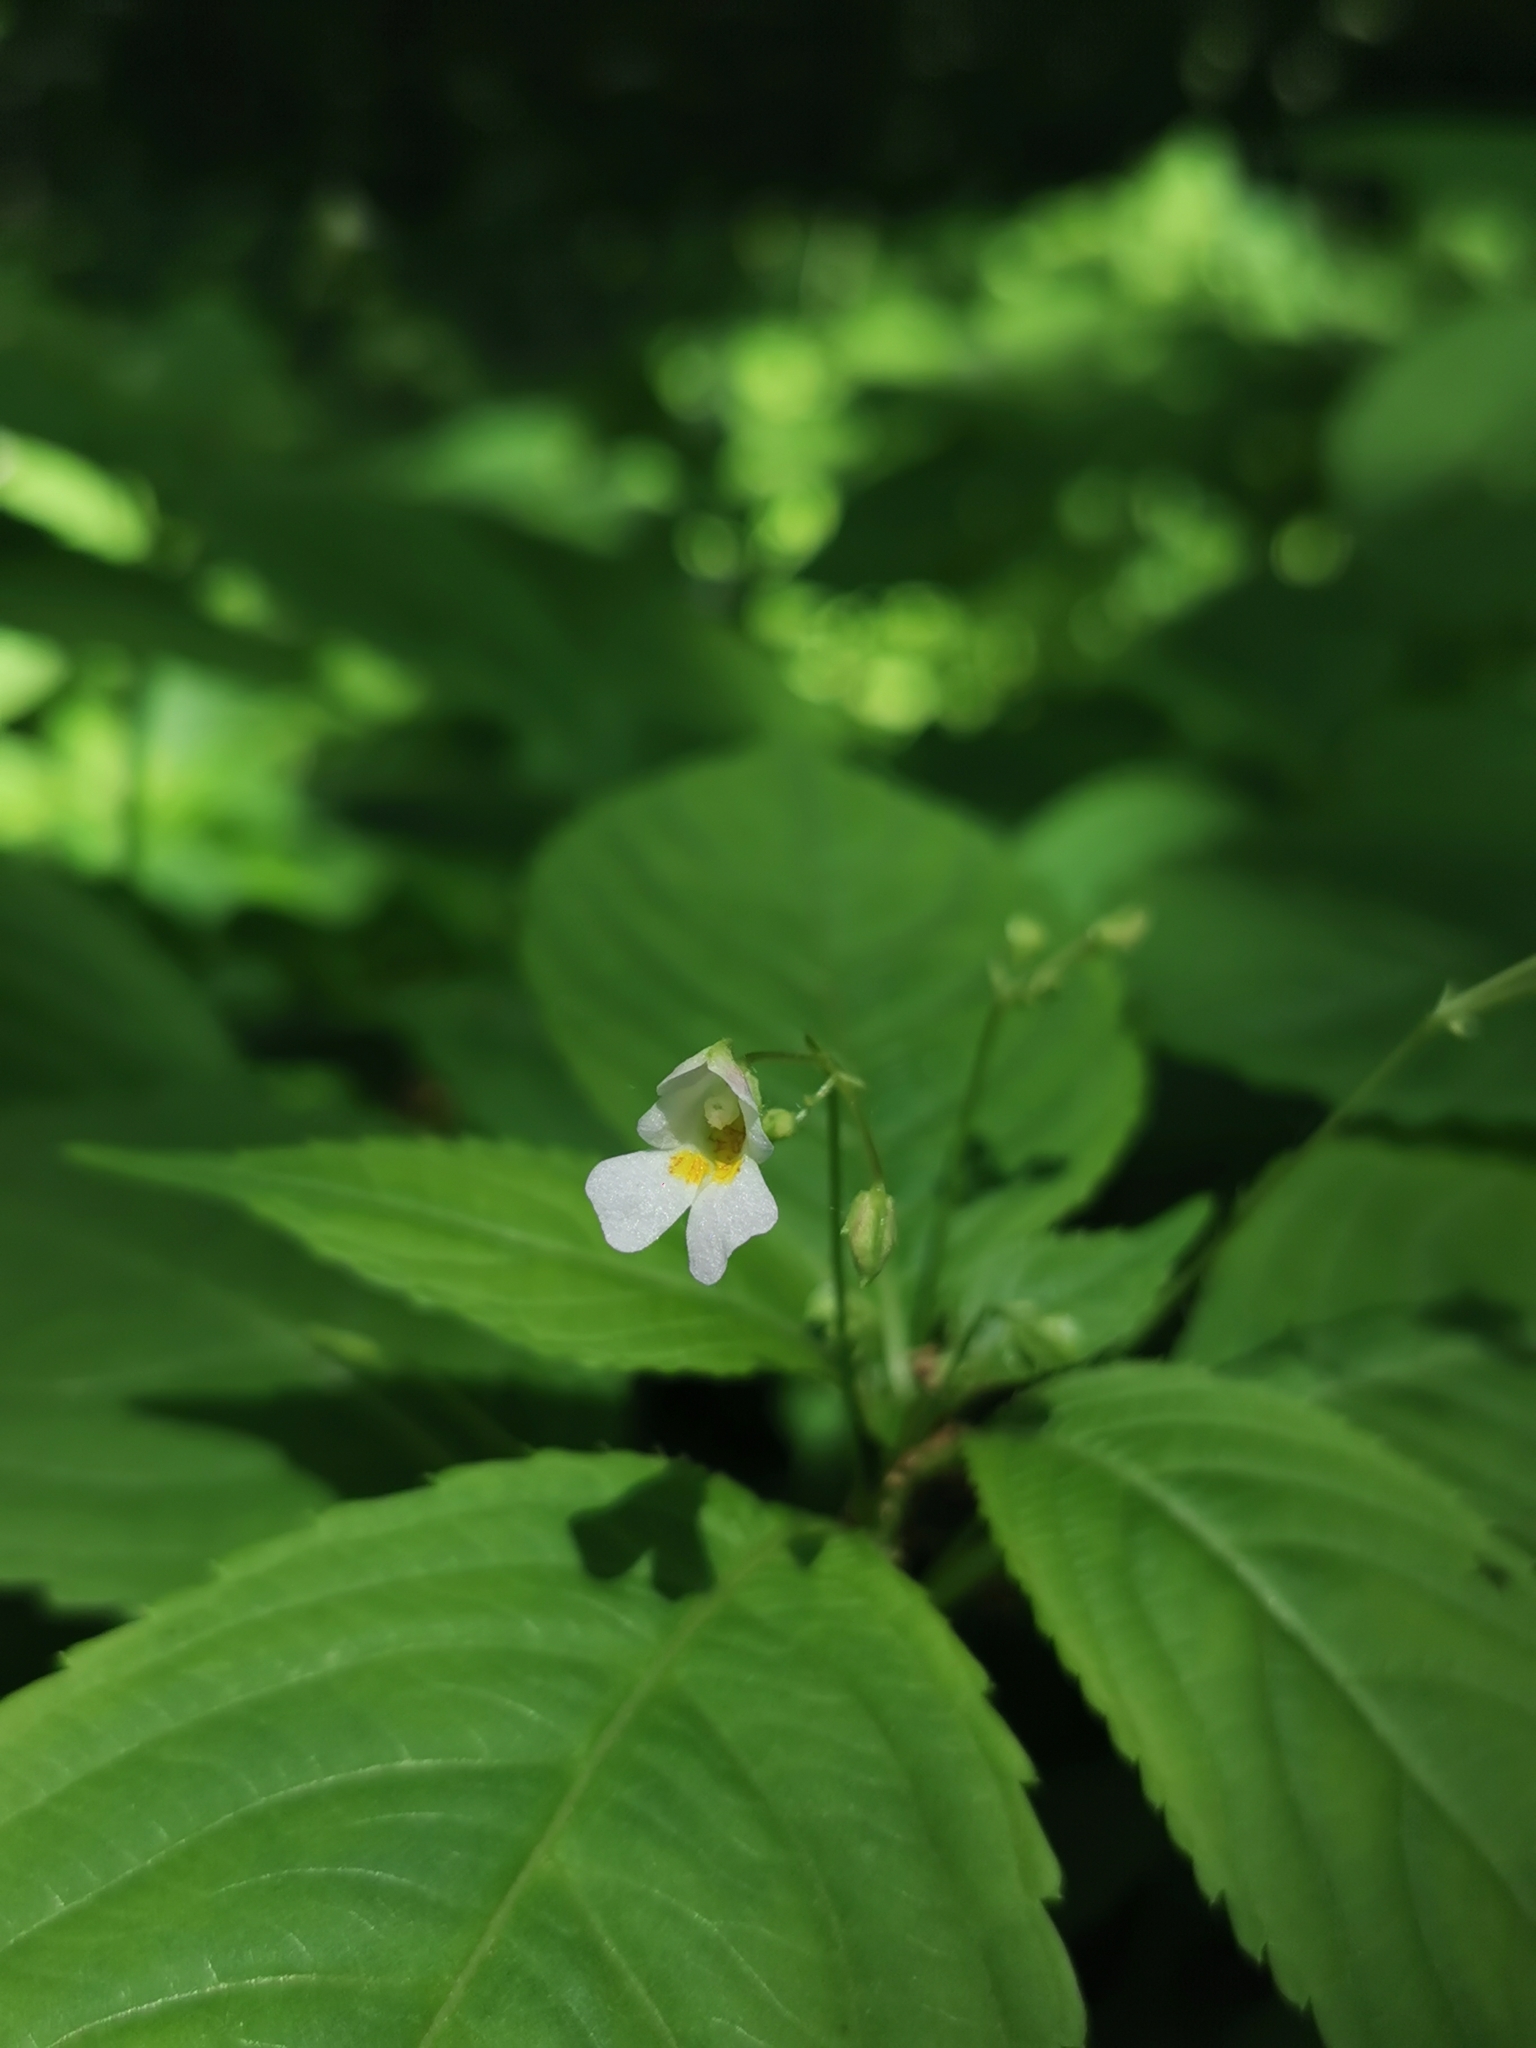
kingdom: Plantae
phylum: Tracheophyta
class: Magnoliopsida
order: Ericales
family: Balsaminaceae
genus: Impatiens
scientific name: Impatiens parviflora
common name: Small balsam
